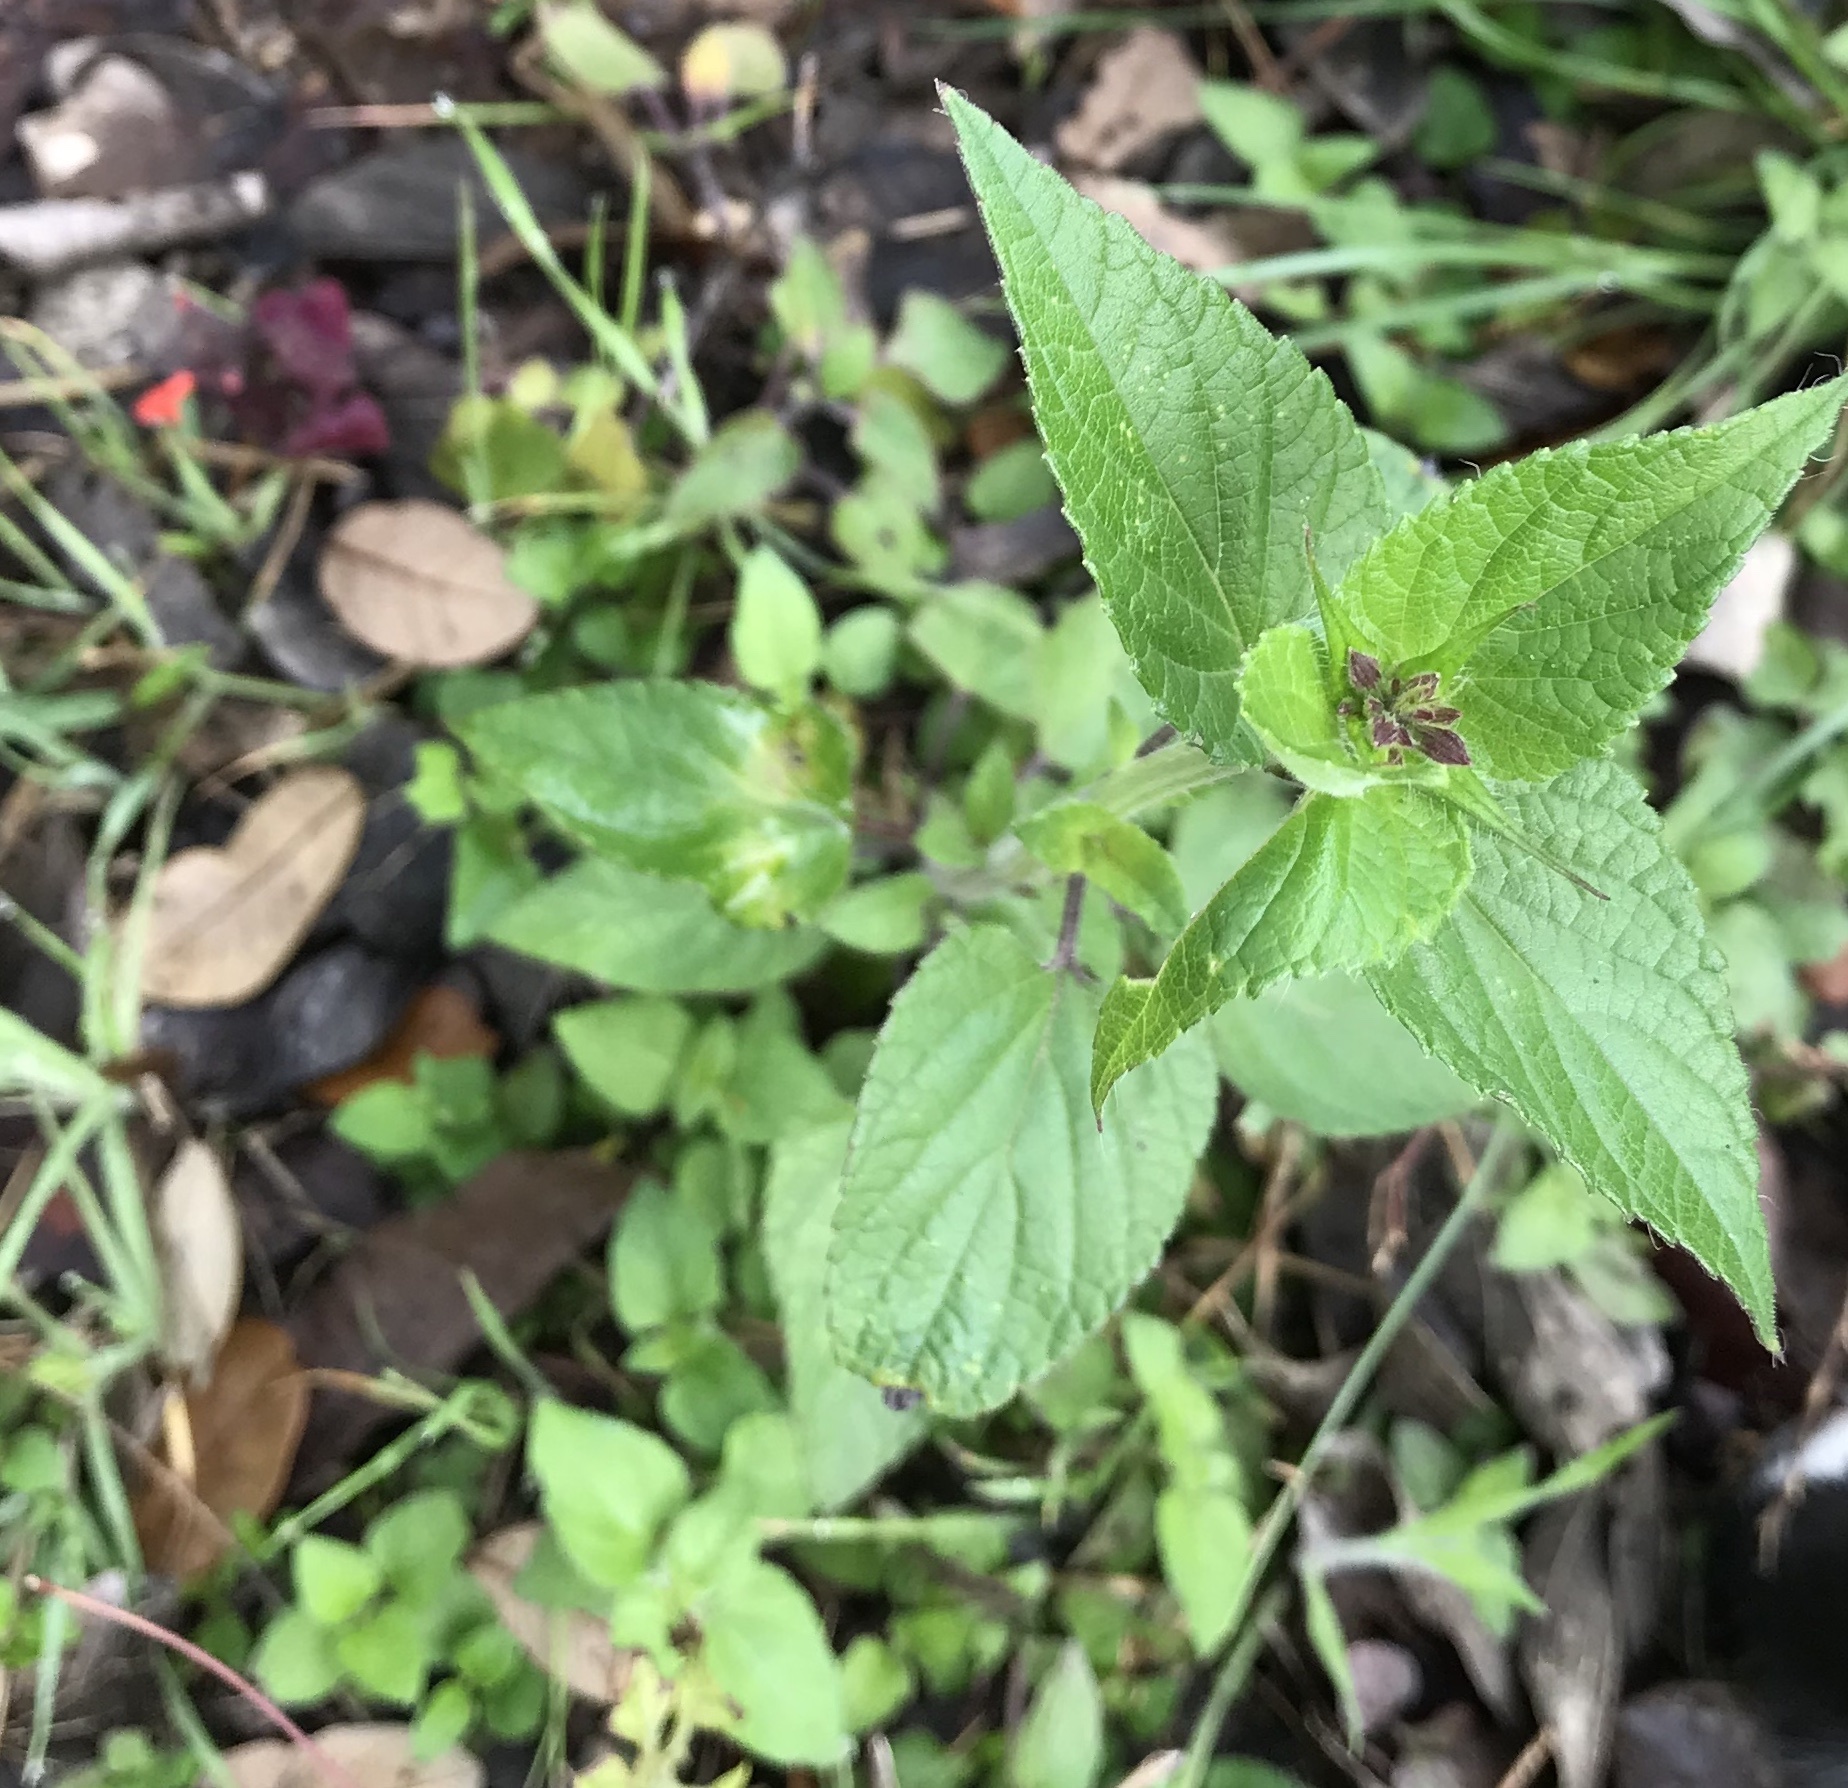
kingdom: Plantae
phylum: Tracheophyta
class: Magnoliopsida
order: Lamiales
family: Lamiaceae
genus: Salvia
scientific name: Salvia coccinea
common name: Blood sage
